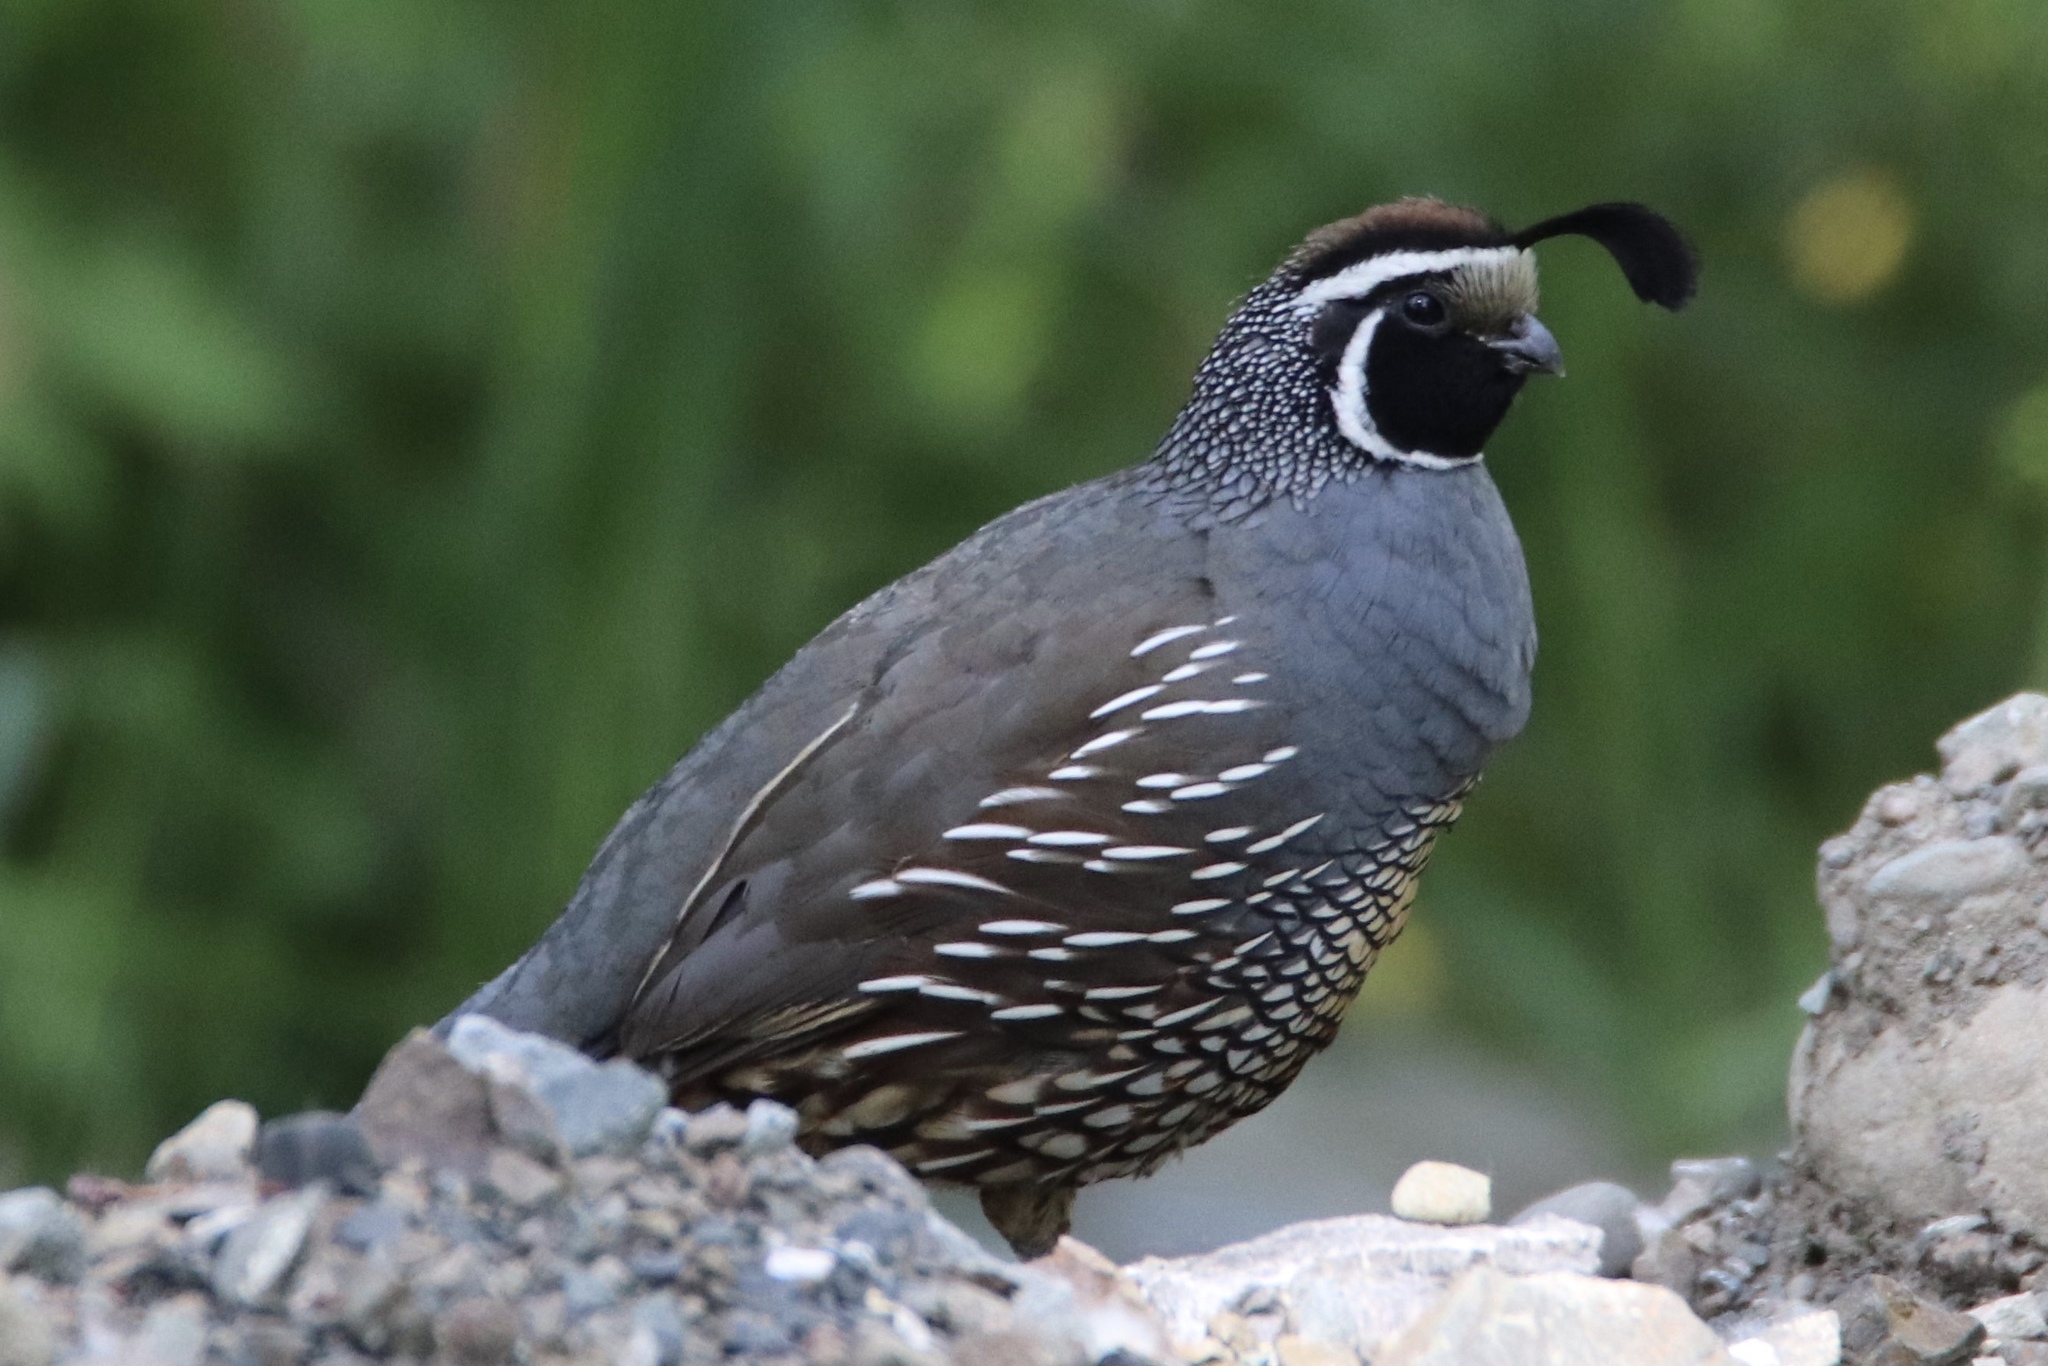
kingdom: Animalia
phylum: Chordata
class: Aves
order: Galliformes
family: Odontophoridae
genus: Callipepla
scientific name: Callipepla californica
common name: California quail
